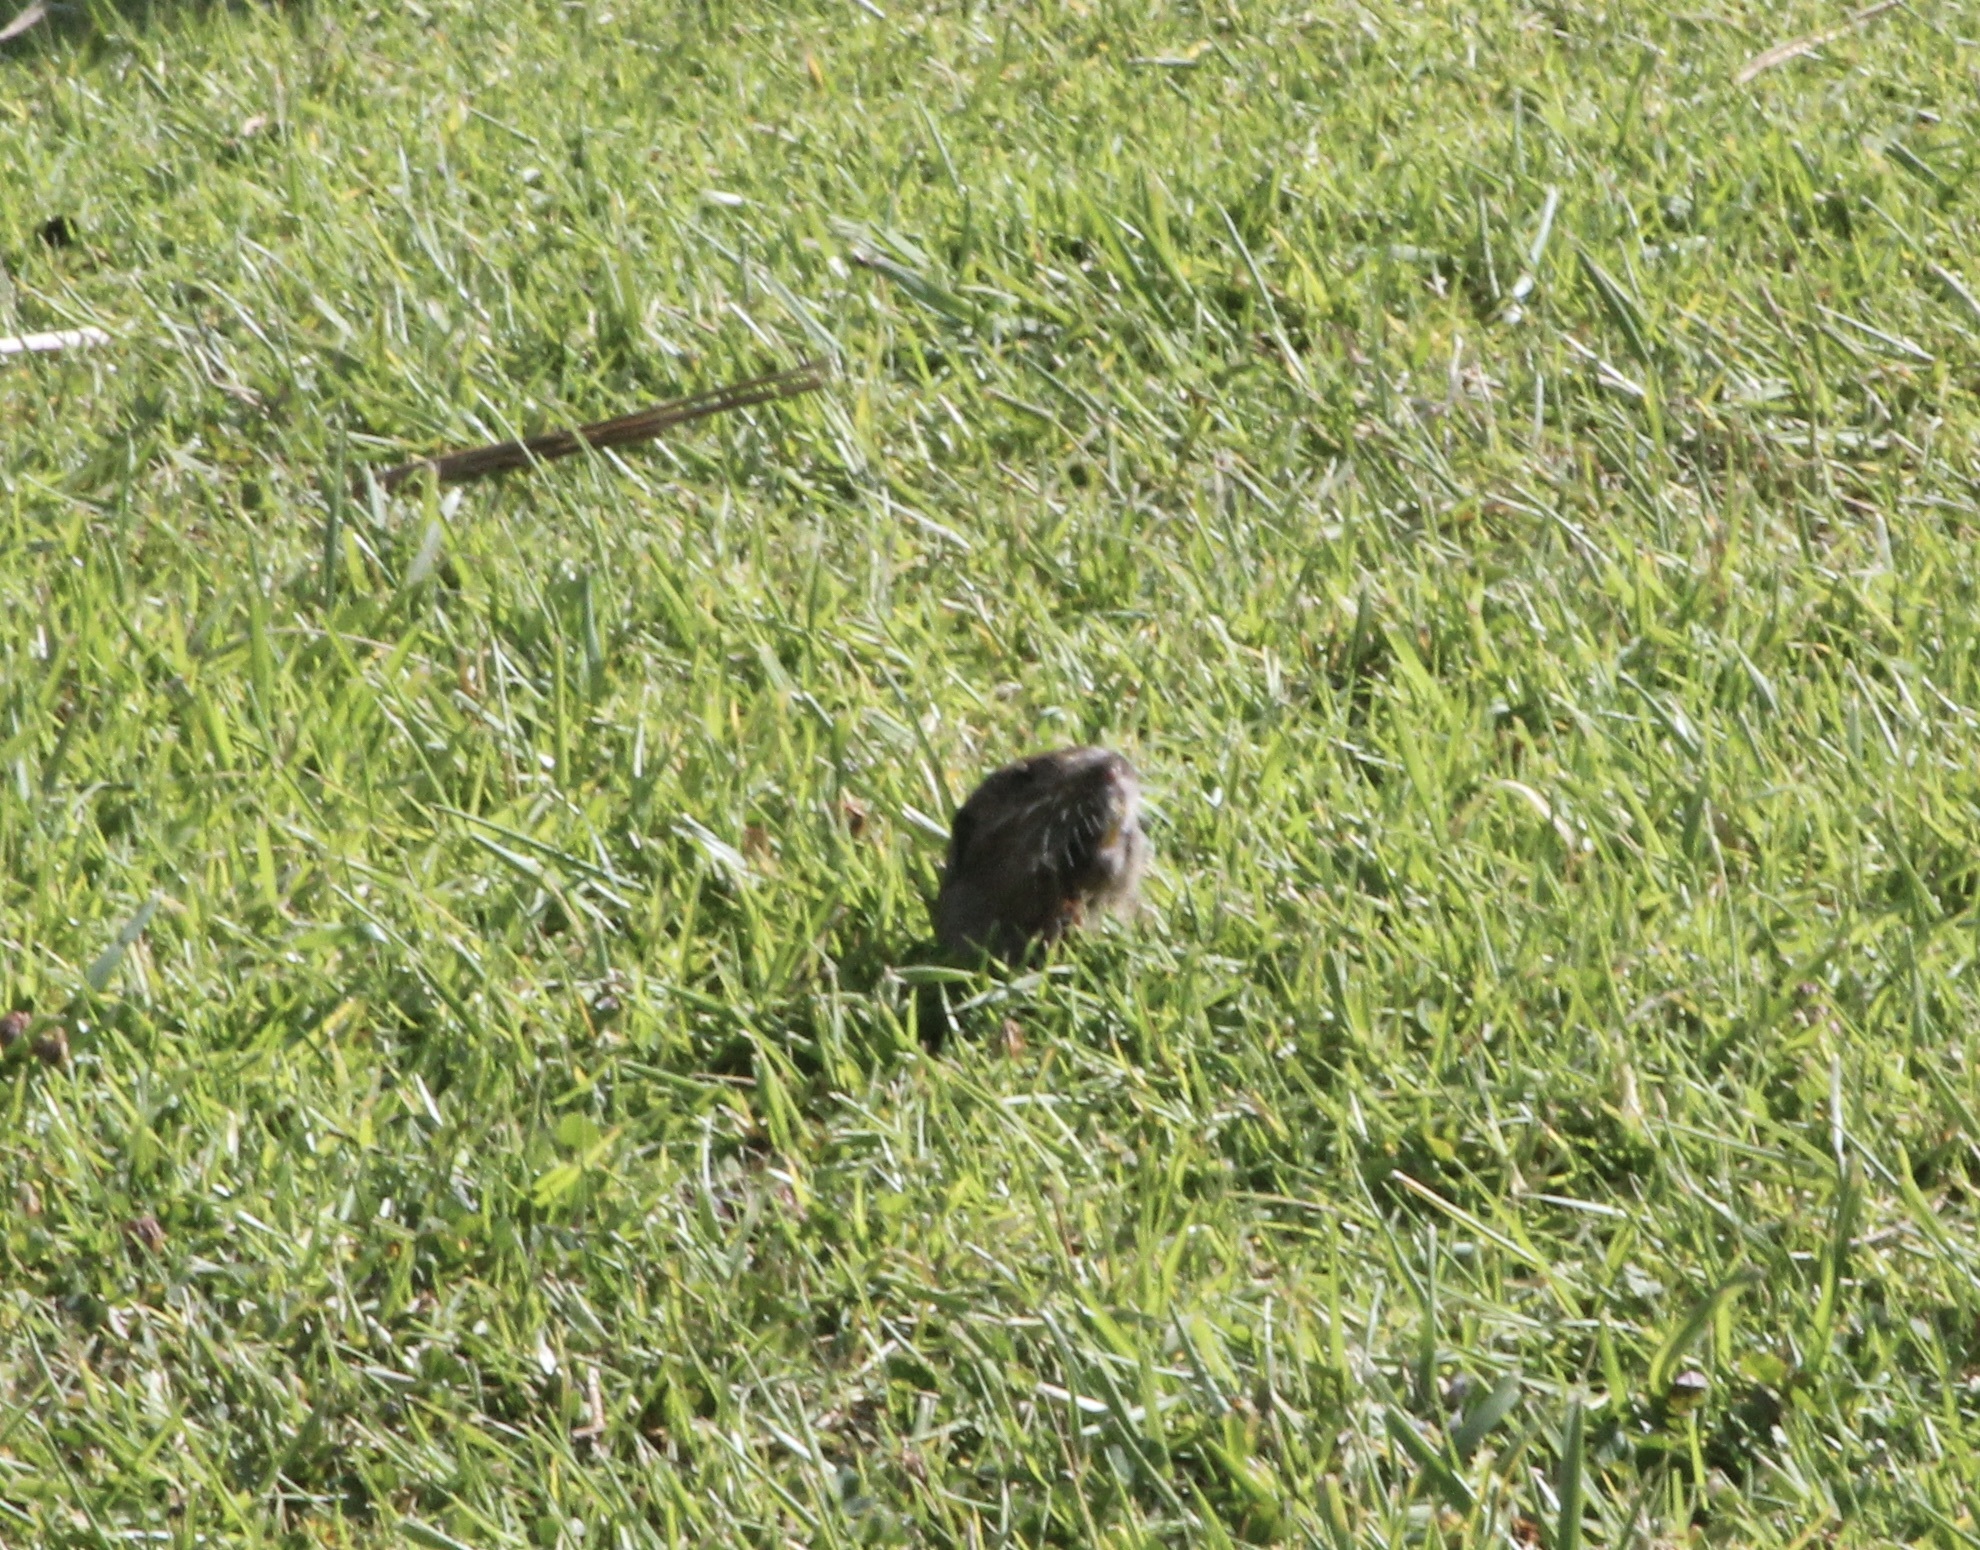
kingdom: Animalia
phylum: Chordata
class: Mammalia
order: Rodentia
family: Geomyidae
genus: Thomomys
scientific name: Thomomys bottae
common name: Botta's pocket gopher
